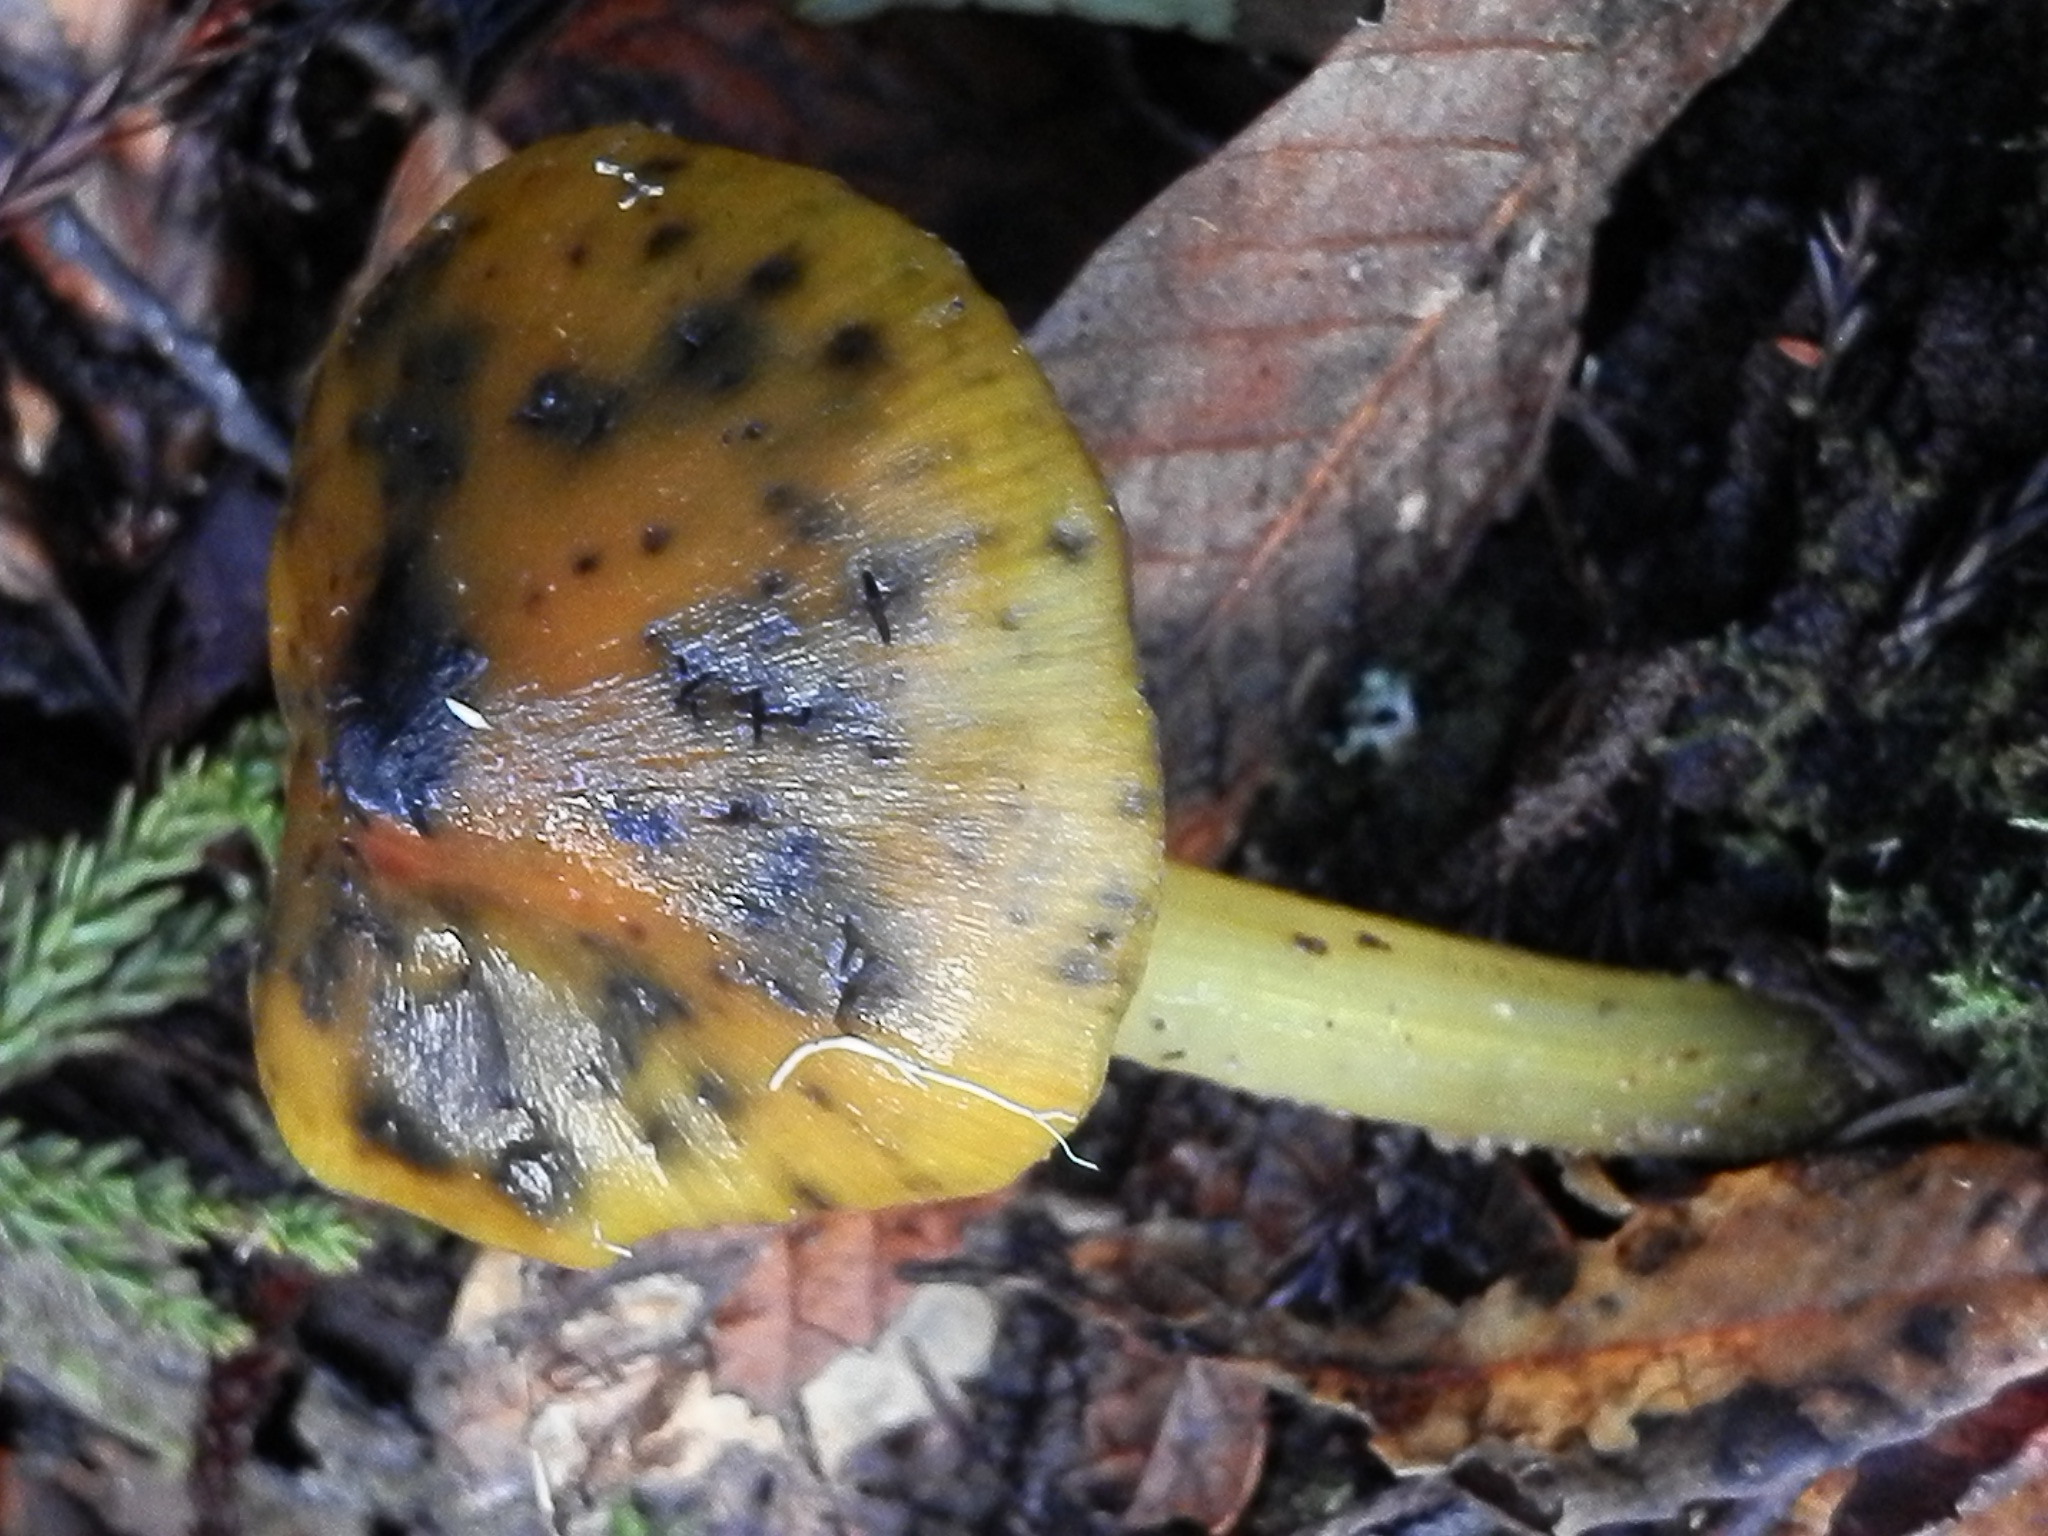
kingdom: Fungi
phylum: Basidiomycota
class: Agaricomycetes
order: Agaricales
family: Hygrophoraceae
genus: Hygrocybe
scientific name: Hygrocybe singeri
